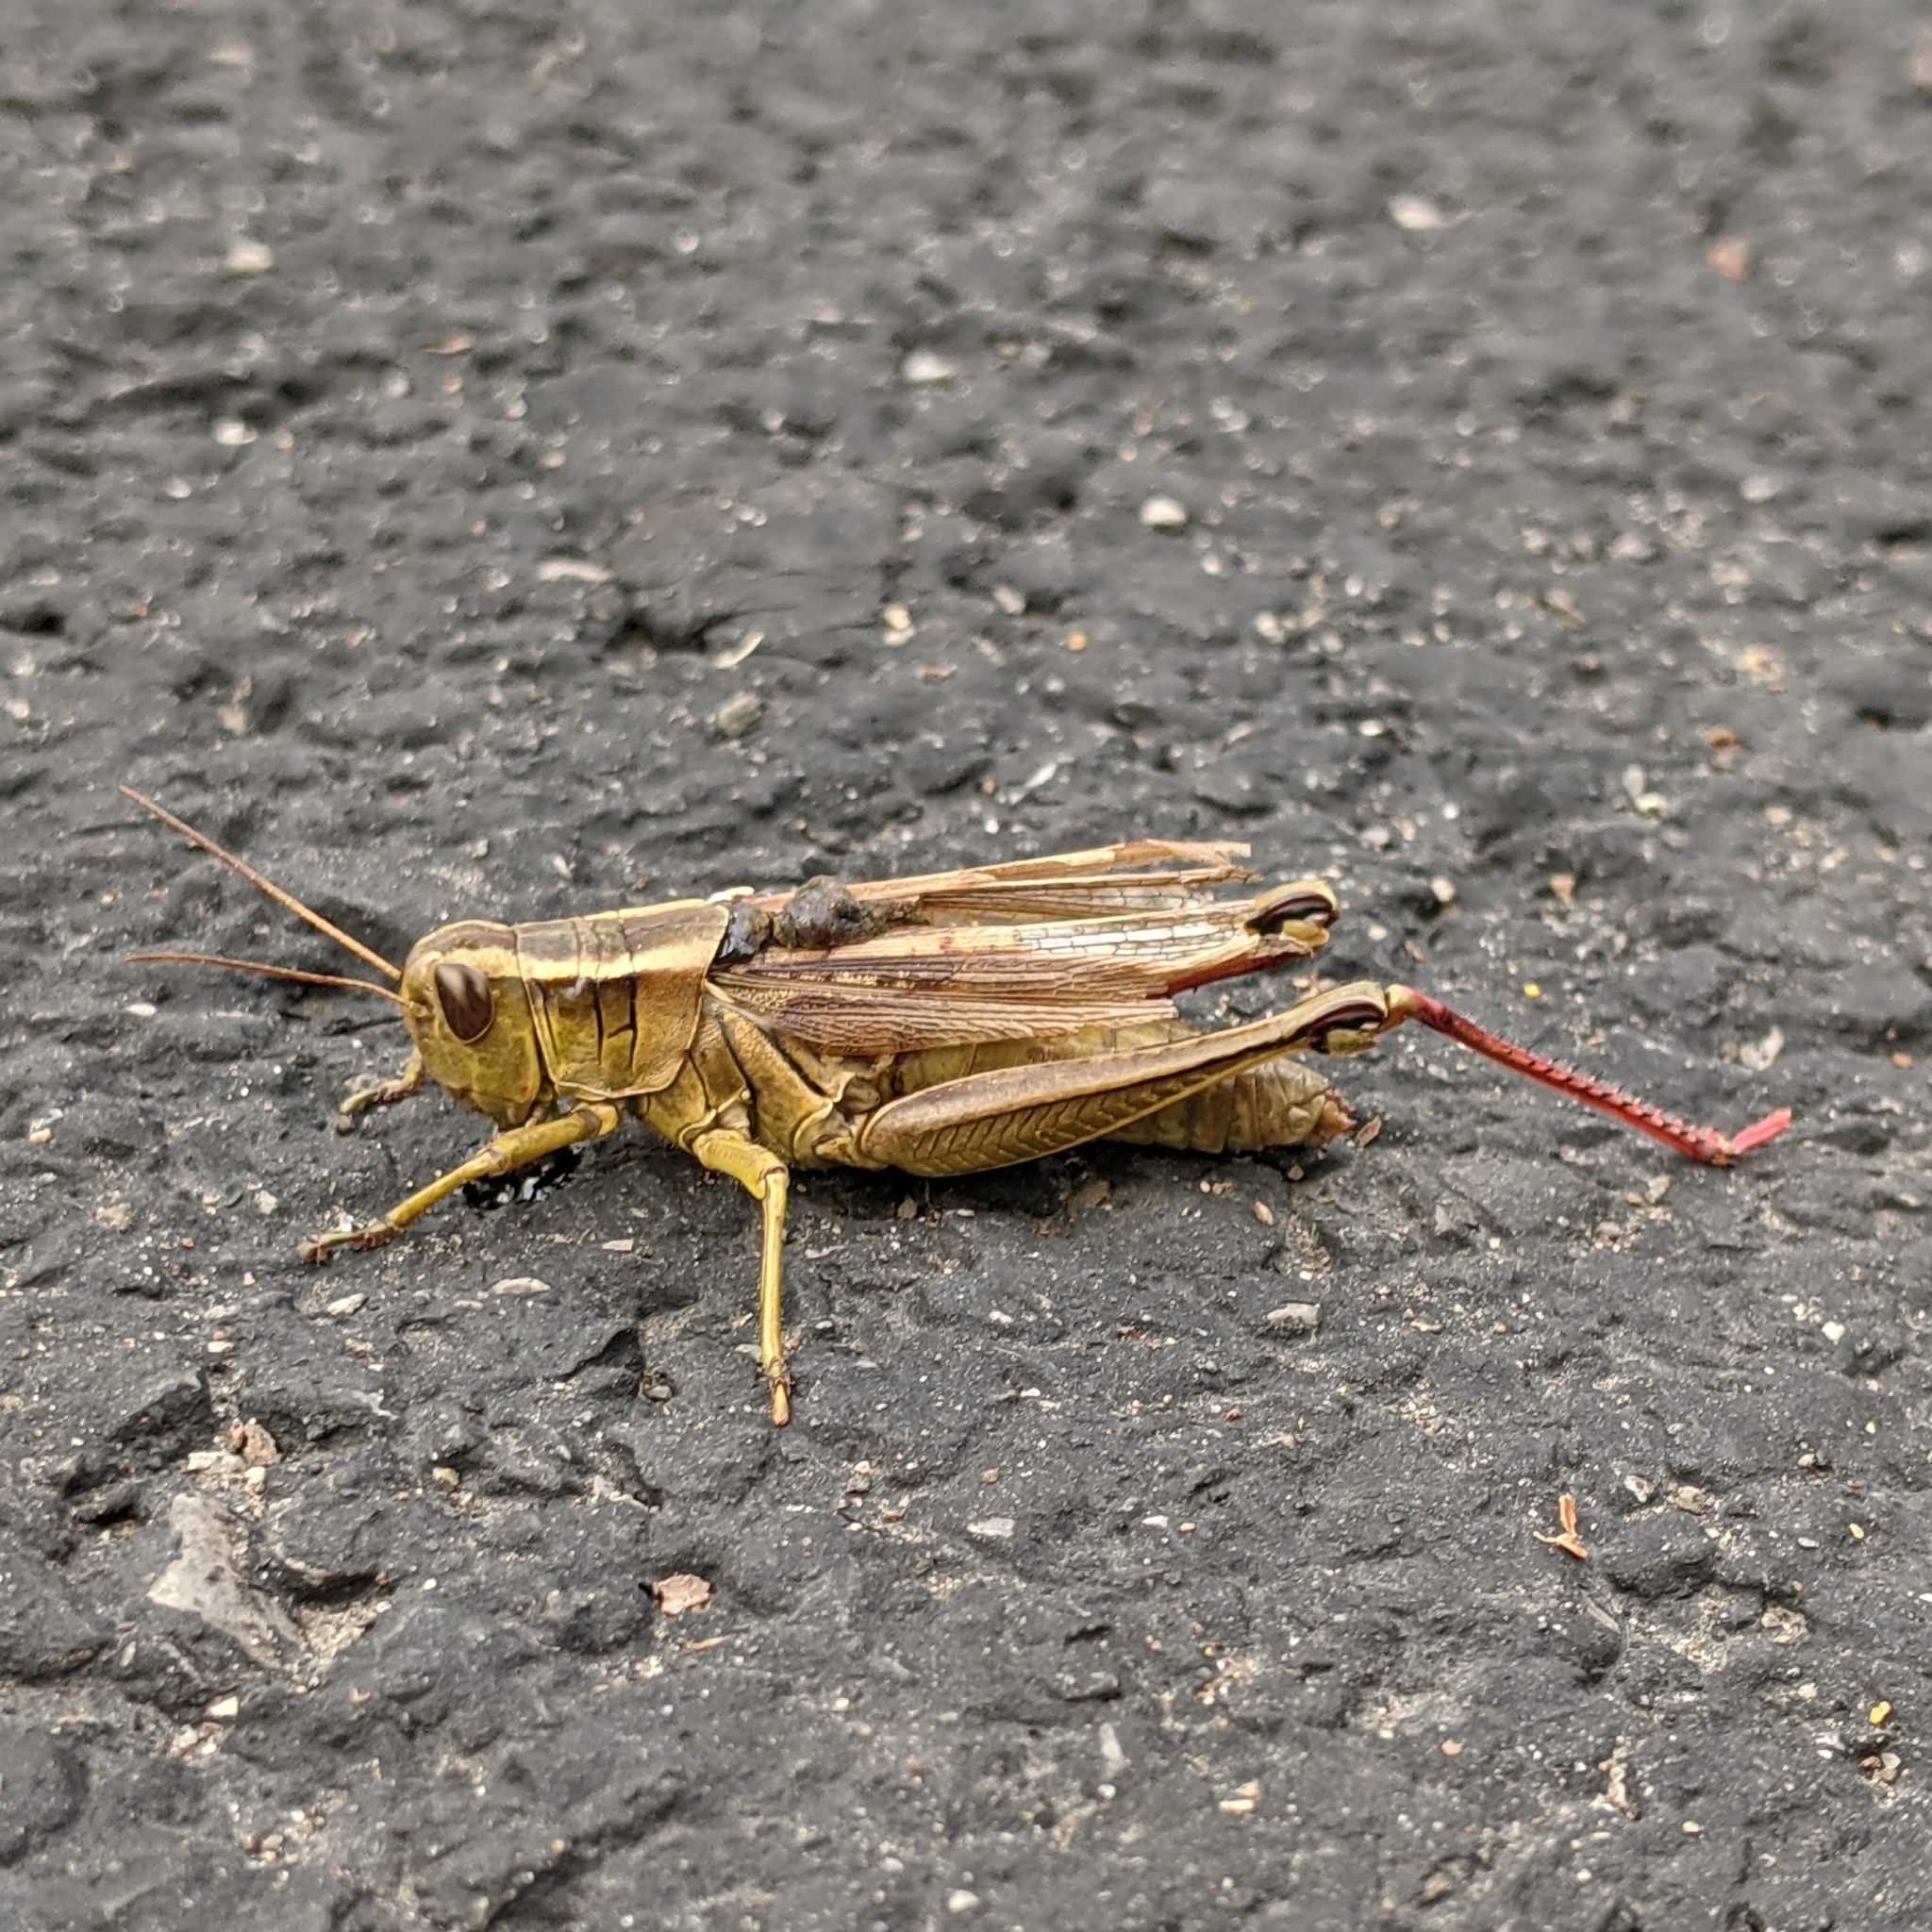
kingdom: Animalia
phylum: Arthropoda
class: Insecta
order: Orthoptera
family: Acrididae
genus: Melanoplus
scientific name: Melanoplus bivittatus
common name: Two-striped grasshopper
